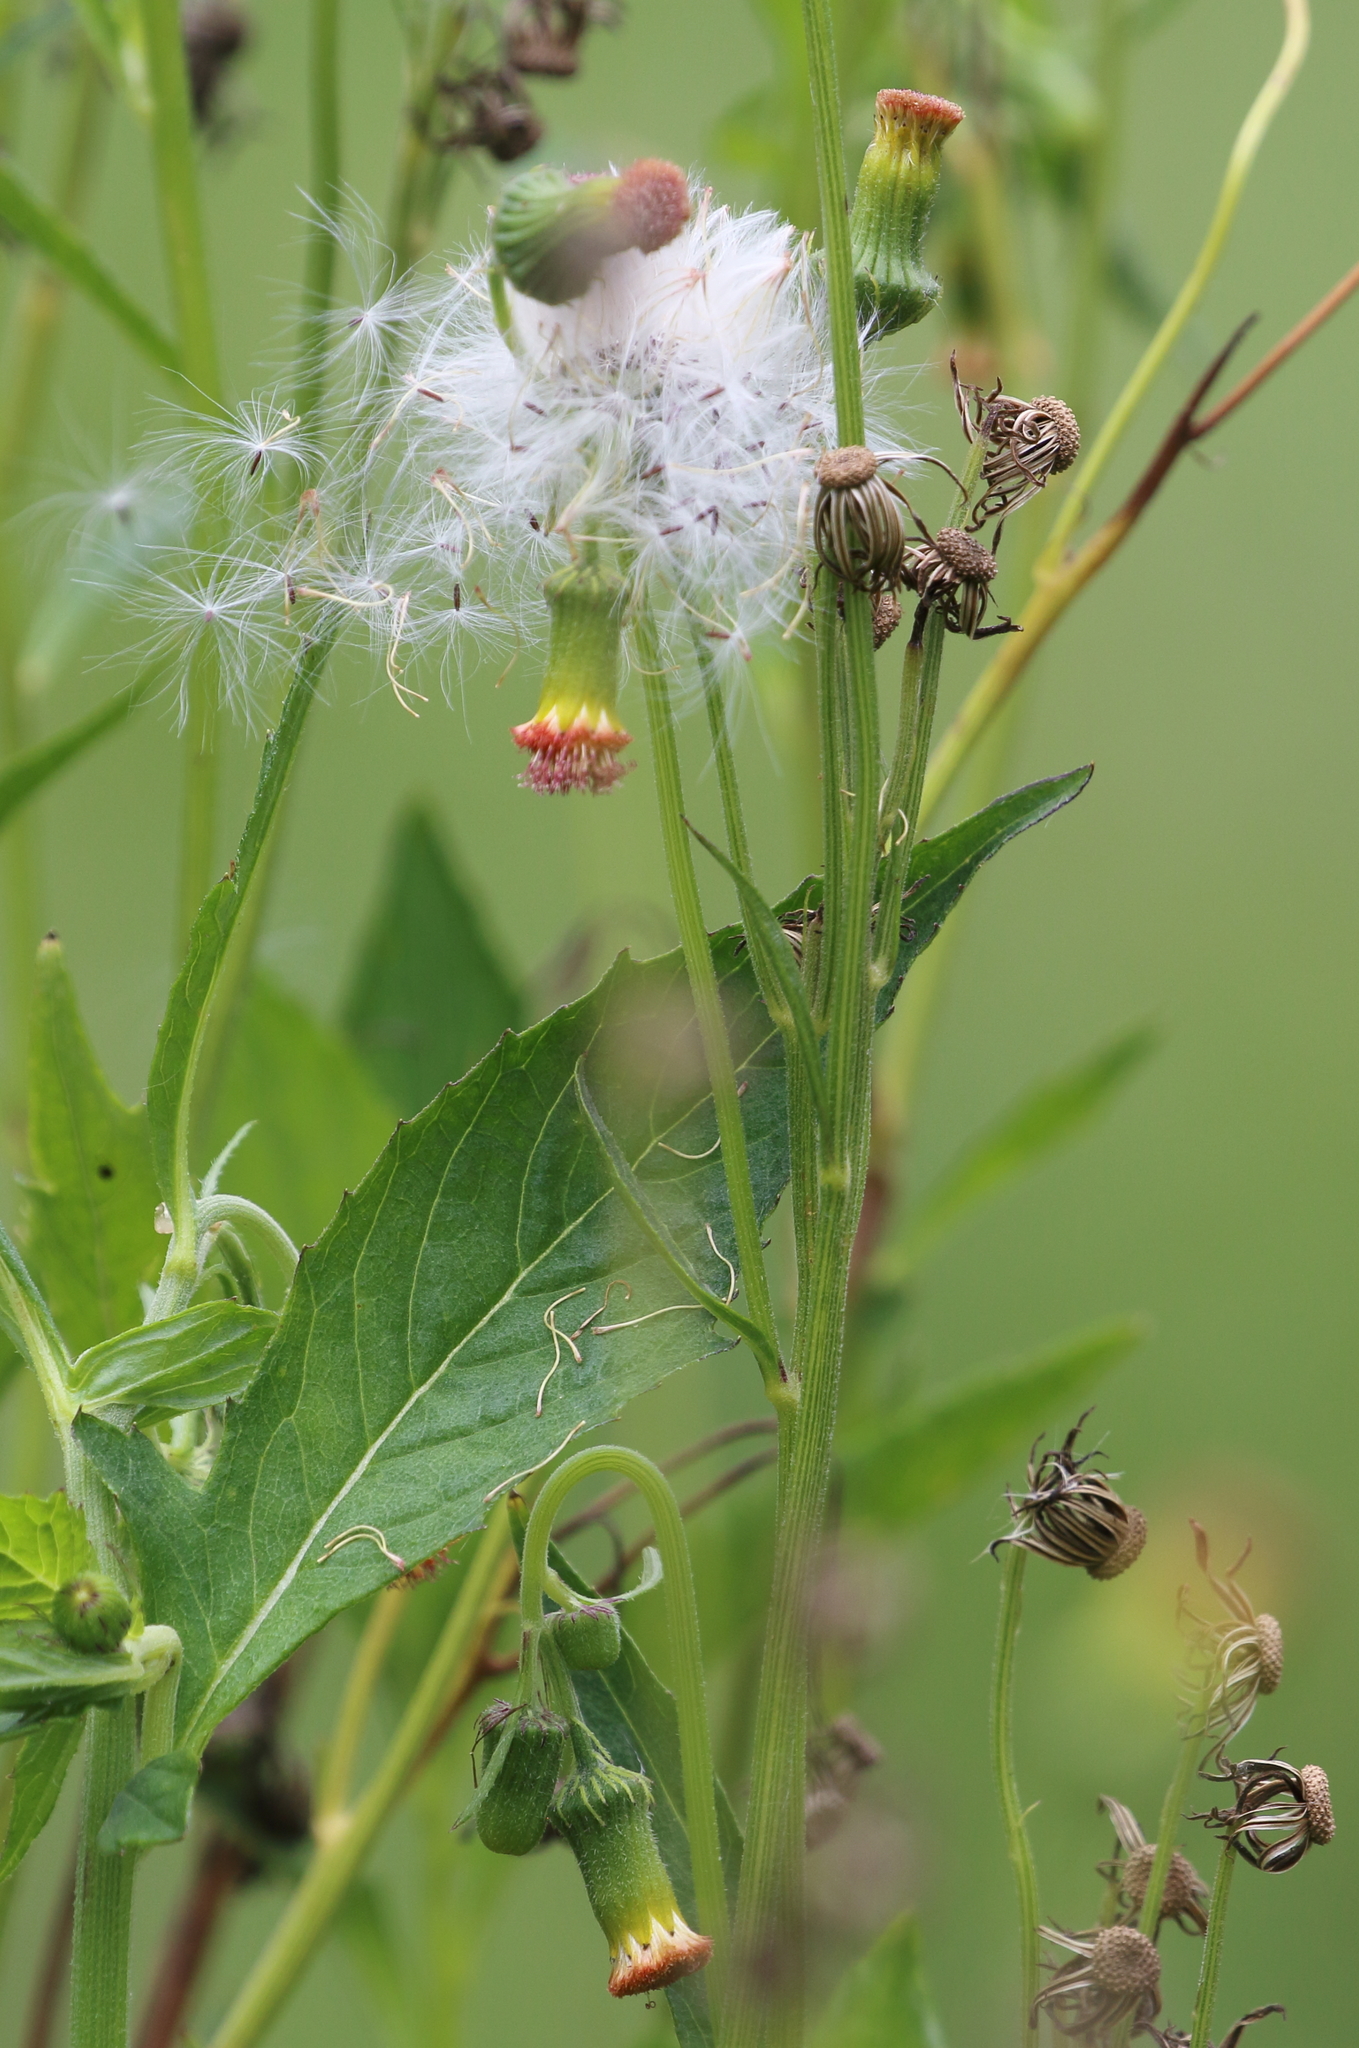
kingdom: Plantae
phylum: Tracheophyta
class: Magnoliopsida
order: Asterales
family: Asteraceae
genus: Crassocephalum
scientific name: Crassocephalum crepidioides
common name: Redflower ragleaf
